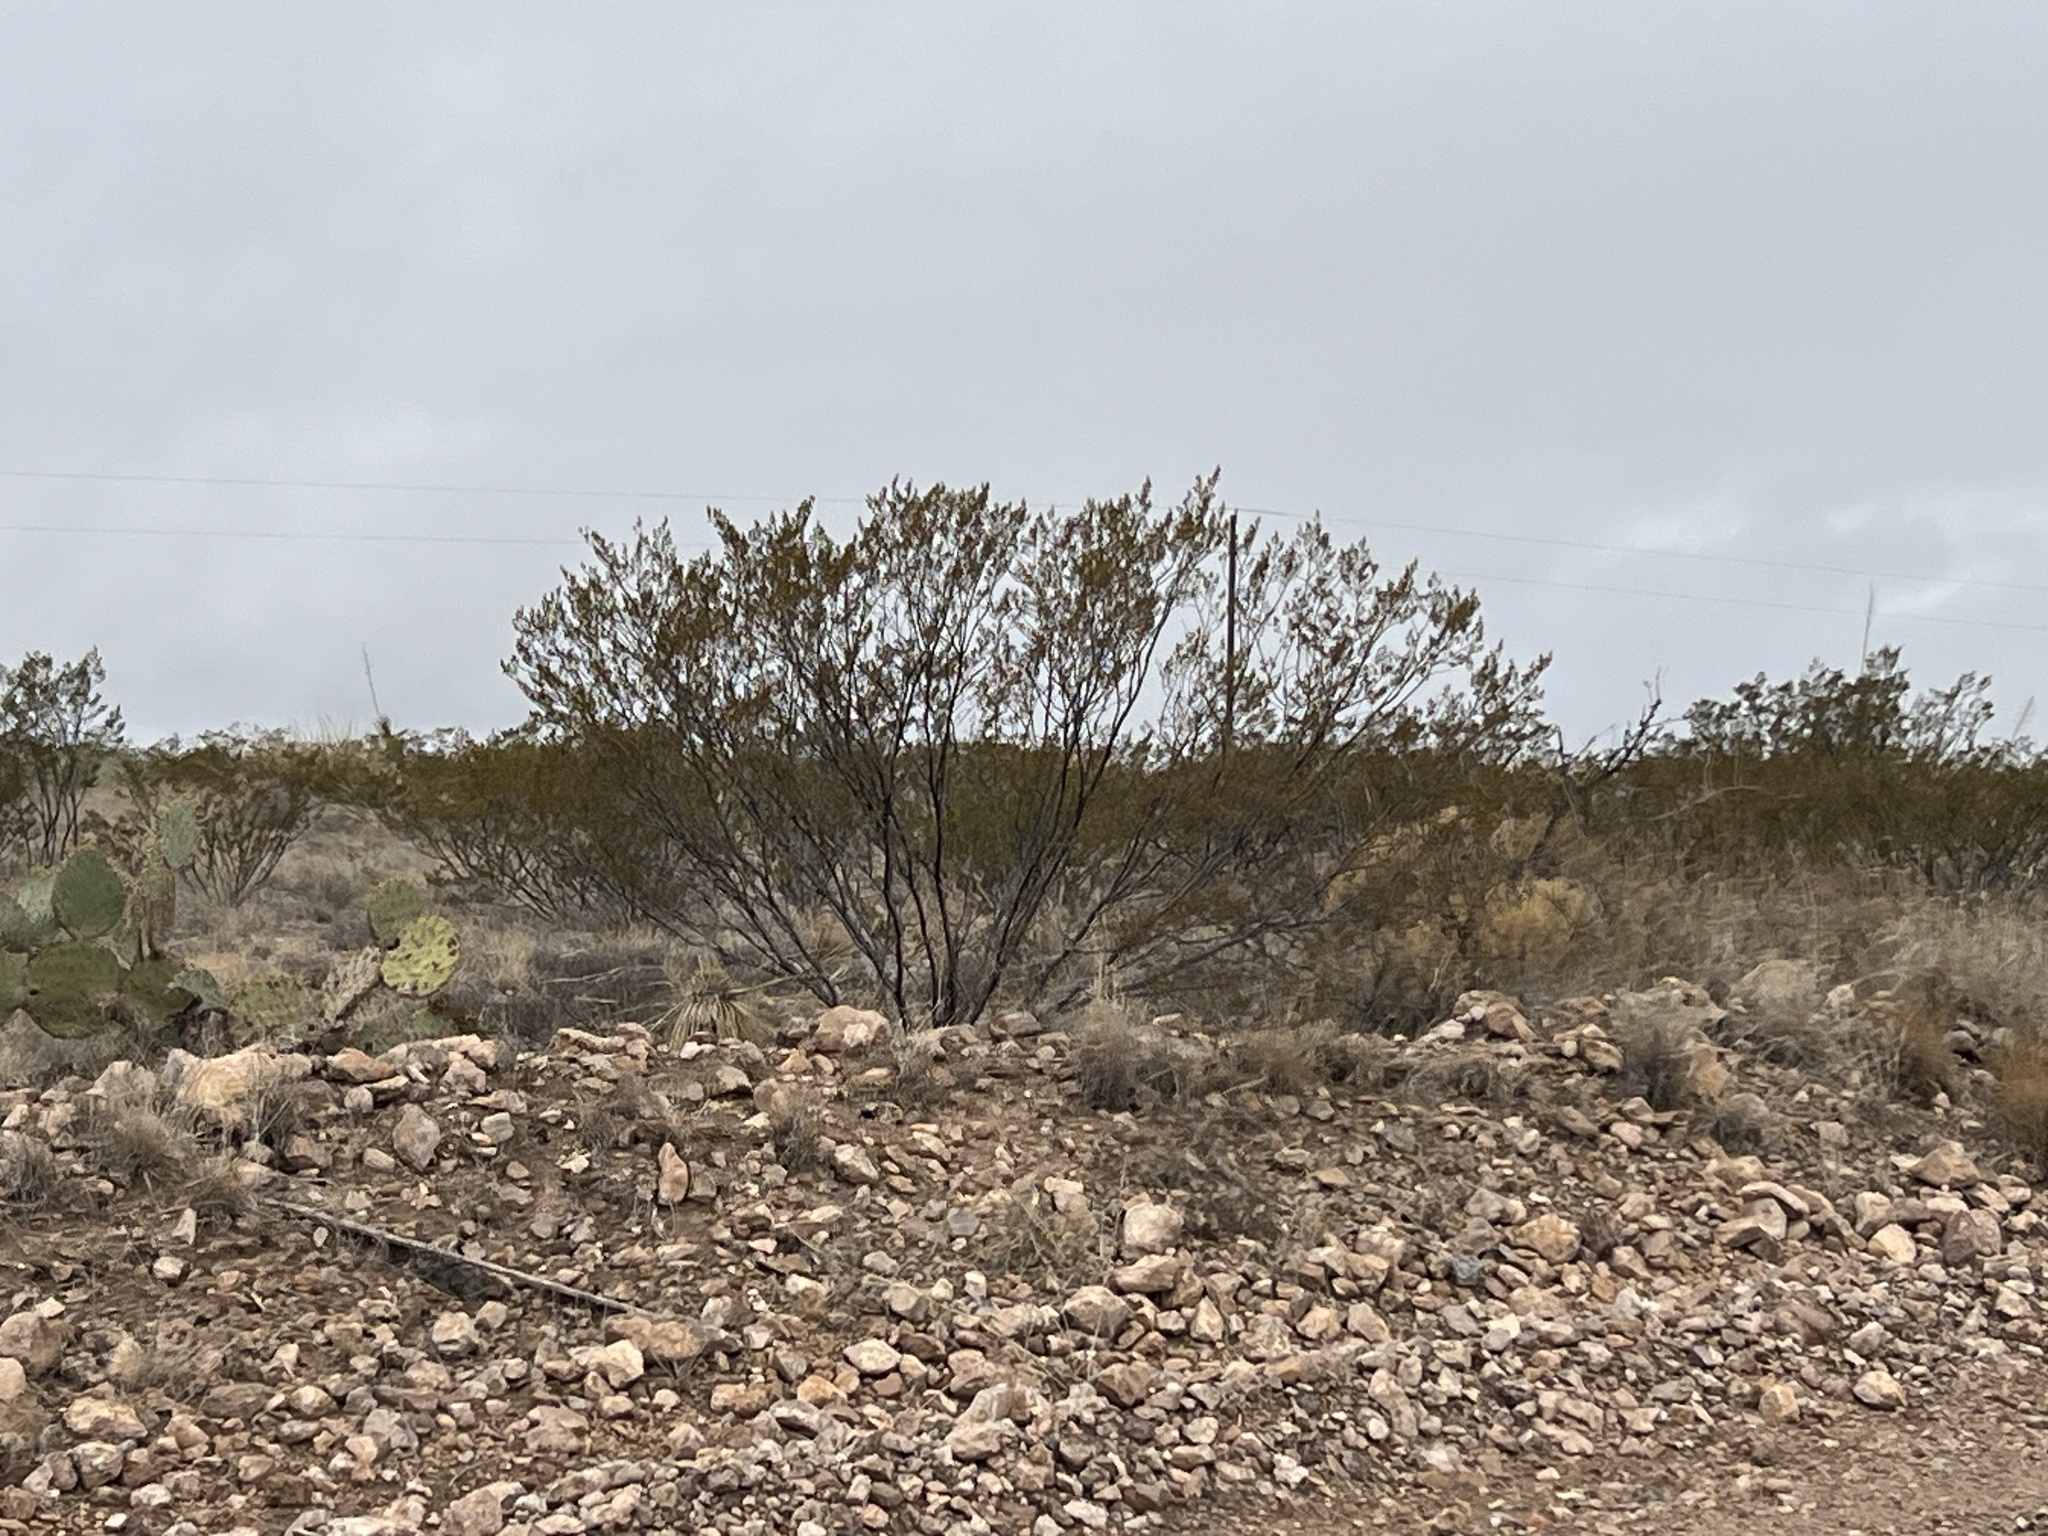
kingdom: Plantae
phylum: Tracheophyta
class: Magnoliopsida
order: Zygophyllales
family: Zygophyllaceae
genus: Larrea
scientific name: Larrea tridentata
